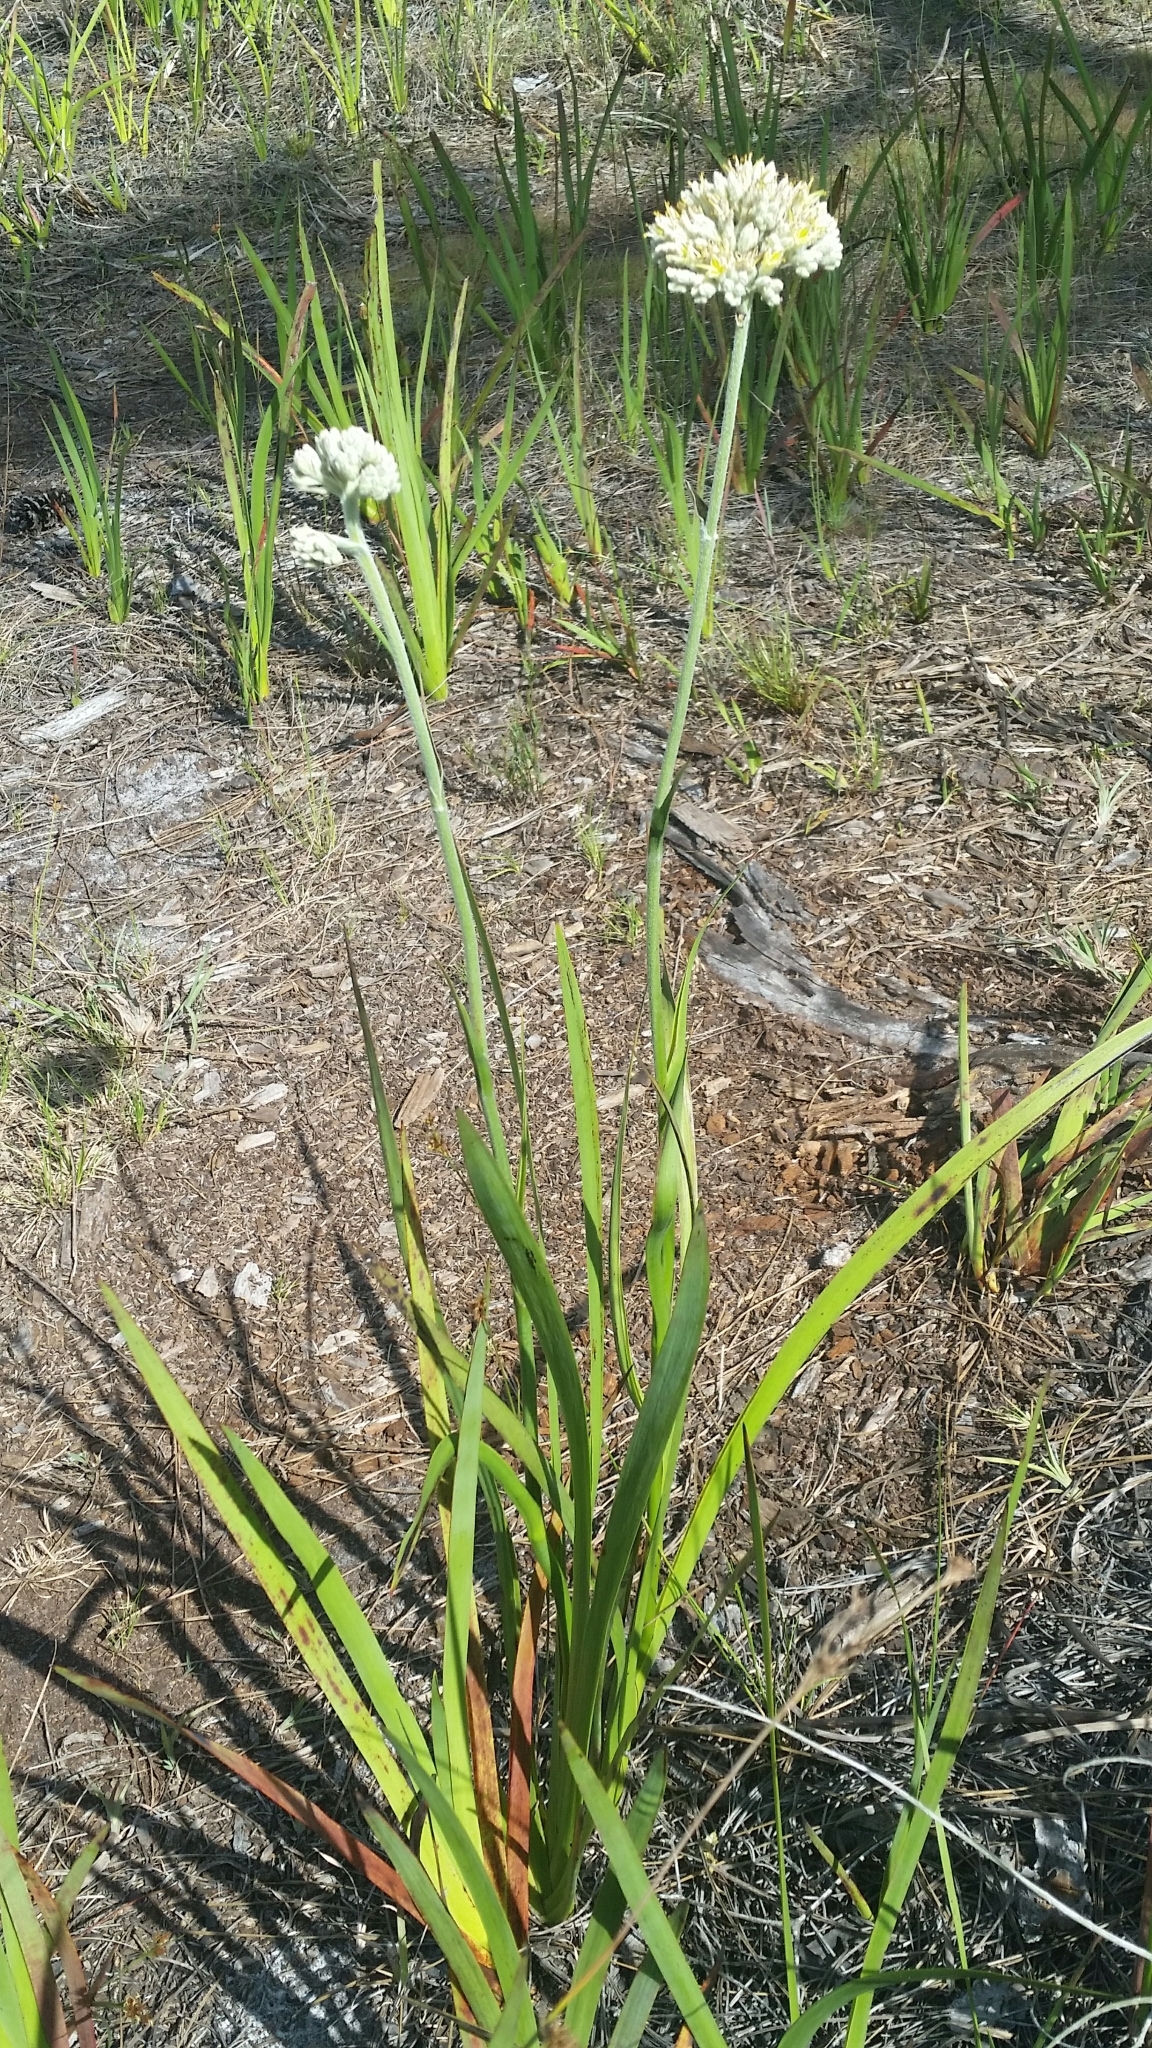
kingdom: Plantae
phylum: Tracheophyta
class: Liliopsida
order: Commelinales
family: Haemodoraceae
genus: Lachnanthes
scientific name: Lachnanthes caroliana
